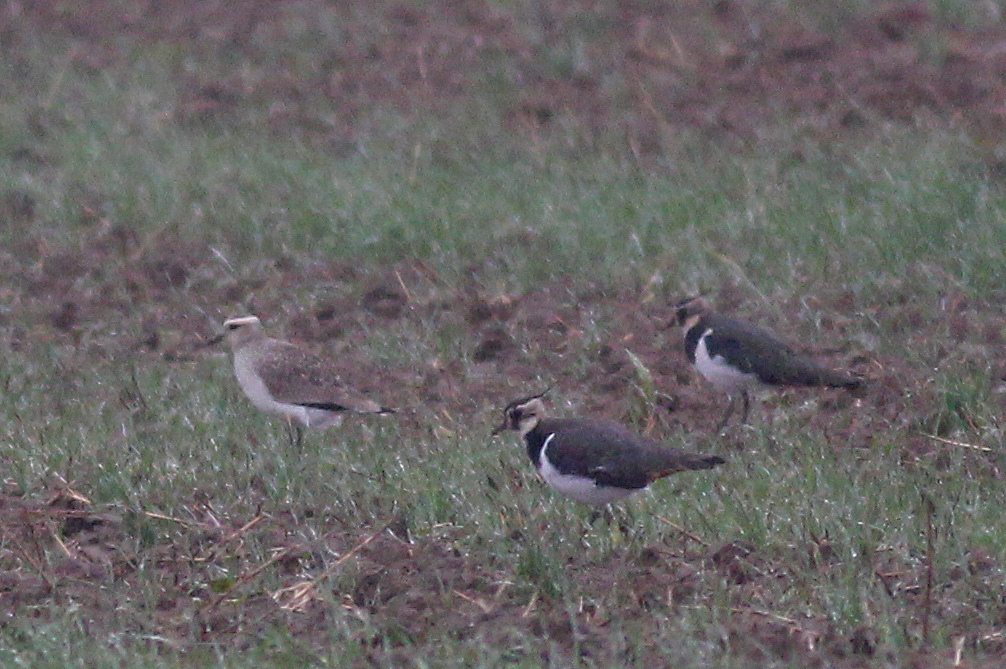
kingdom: Animalia
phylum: Chordata
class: Aves
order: Charadriiformes
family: Charadriidae
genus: Vanellus
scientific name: Vanellus gregarius
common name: Sociable lapwing
